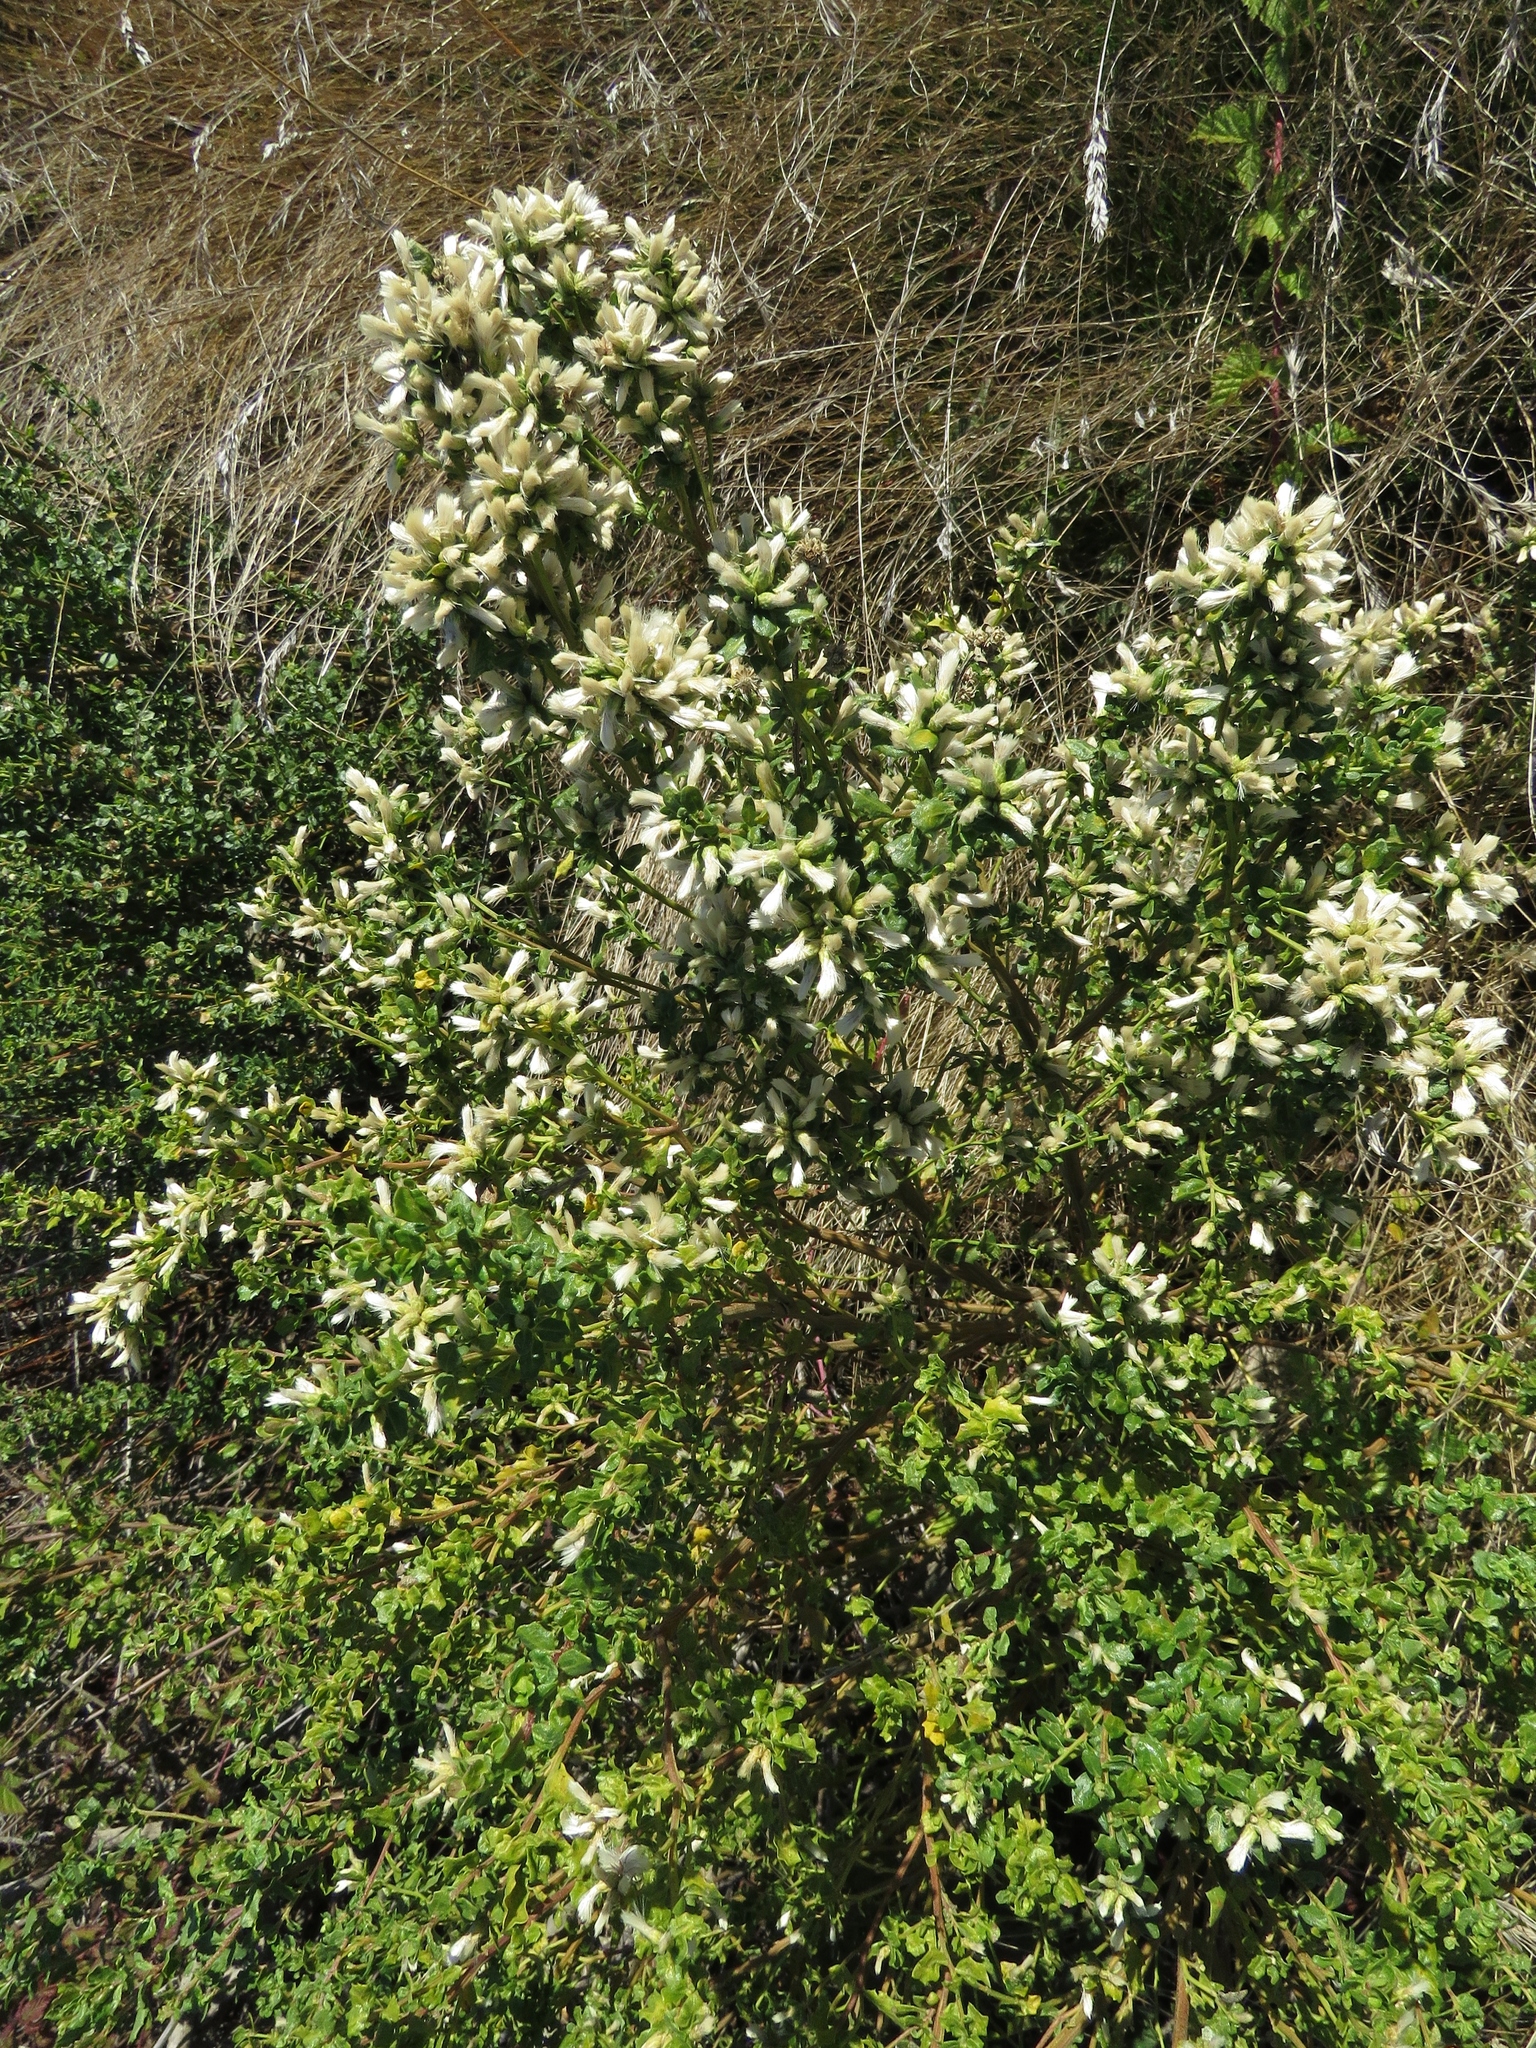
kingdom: Plantae
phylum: Tracheophyta
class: Magnoliopsida
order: Asterales
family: Asteraceae
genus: Baccharis
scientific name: Baccharis pilularis
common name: Coyotebrush
